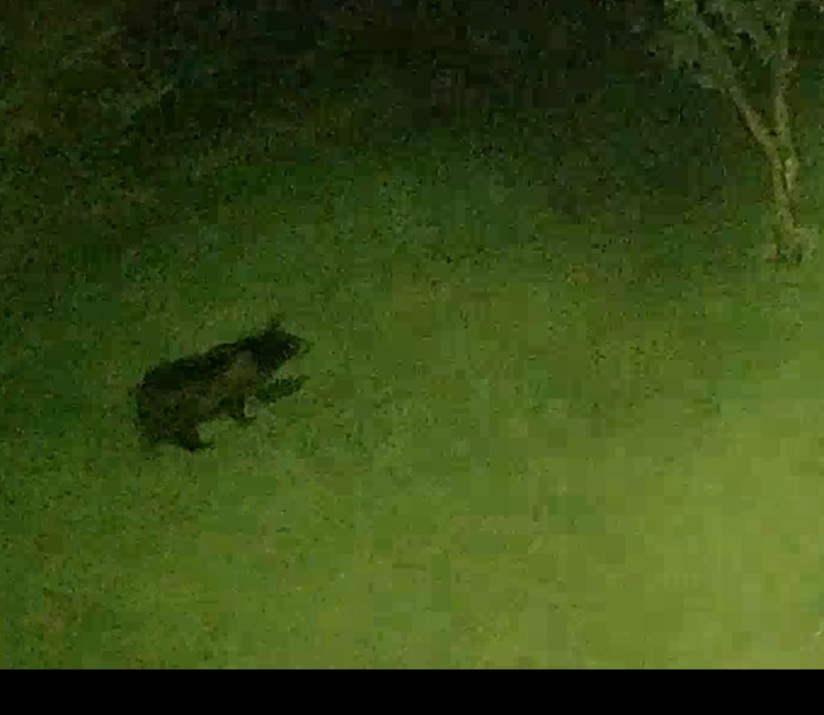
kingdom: Animalia
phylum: Chordata
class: Mammalia
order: Carnivora
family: Ursidae
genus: Ursus
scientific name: Ursus americanus
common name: American black bear
